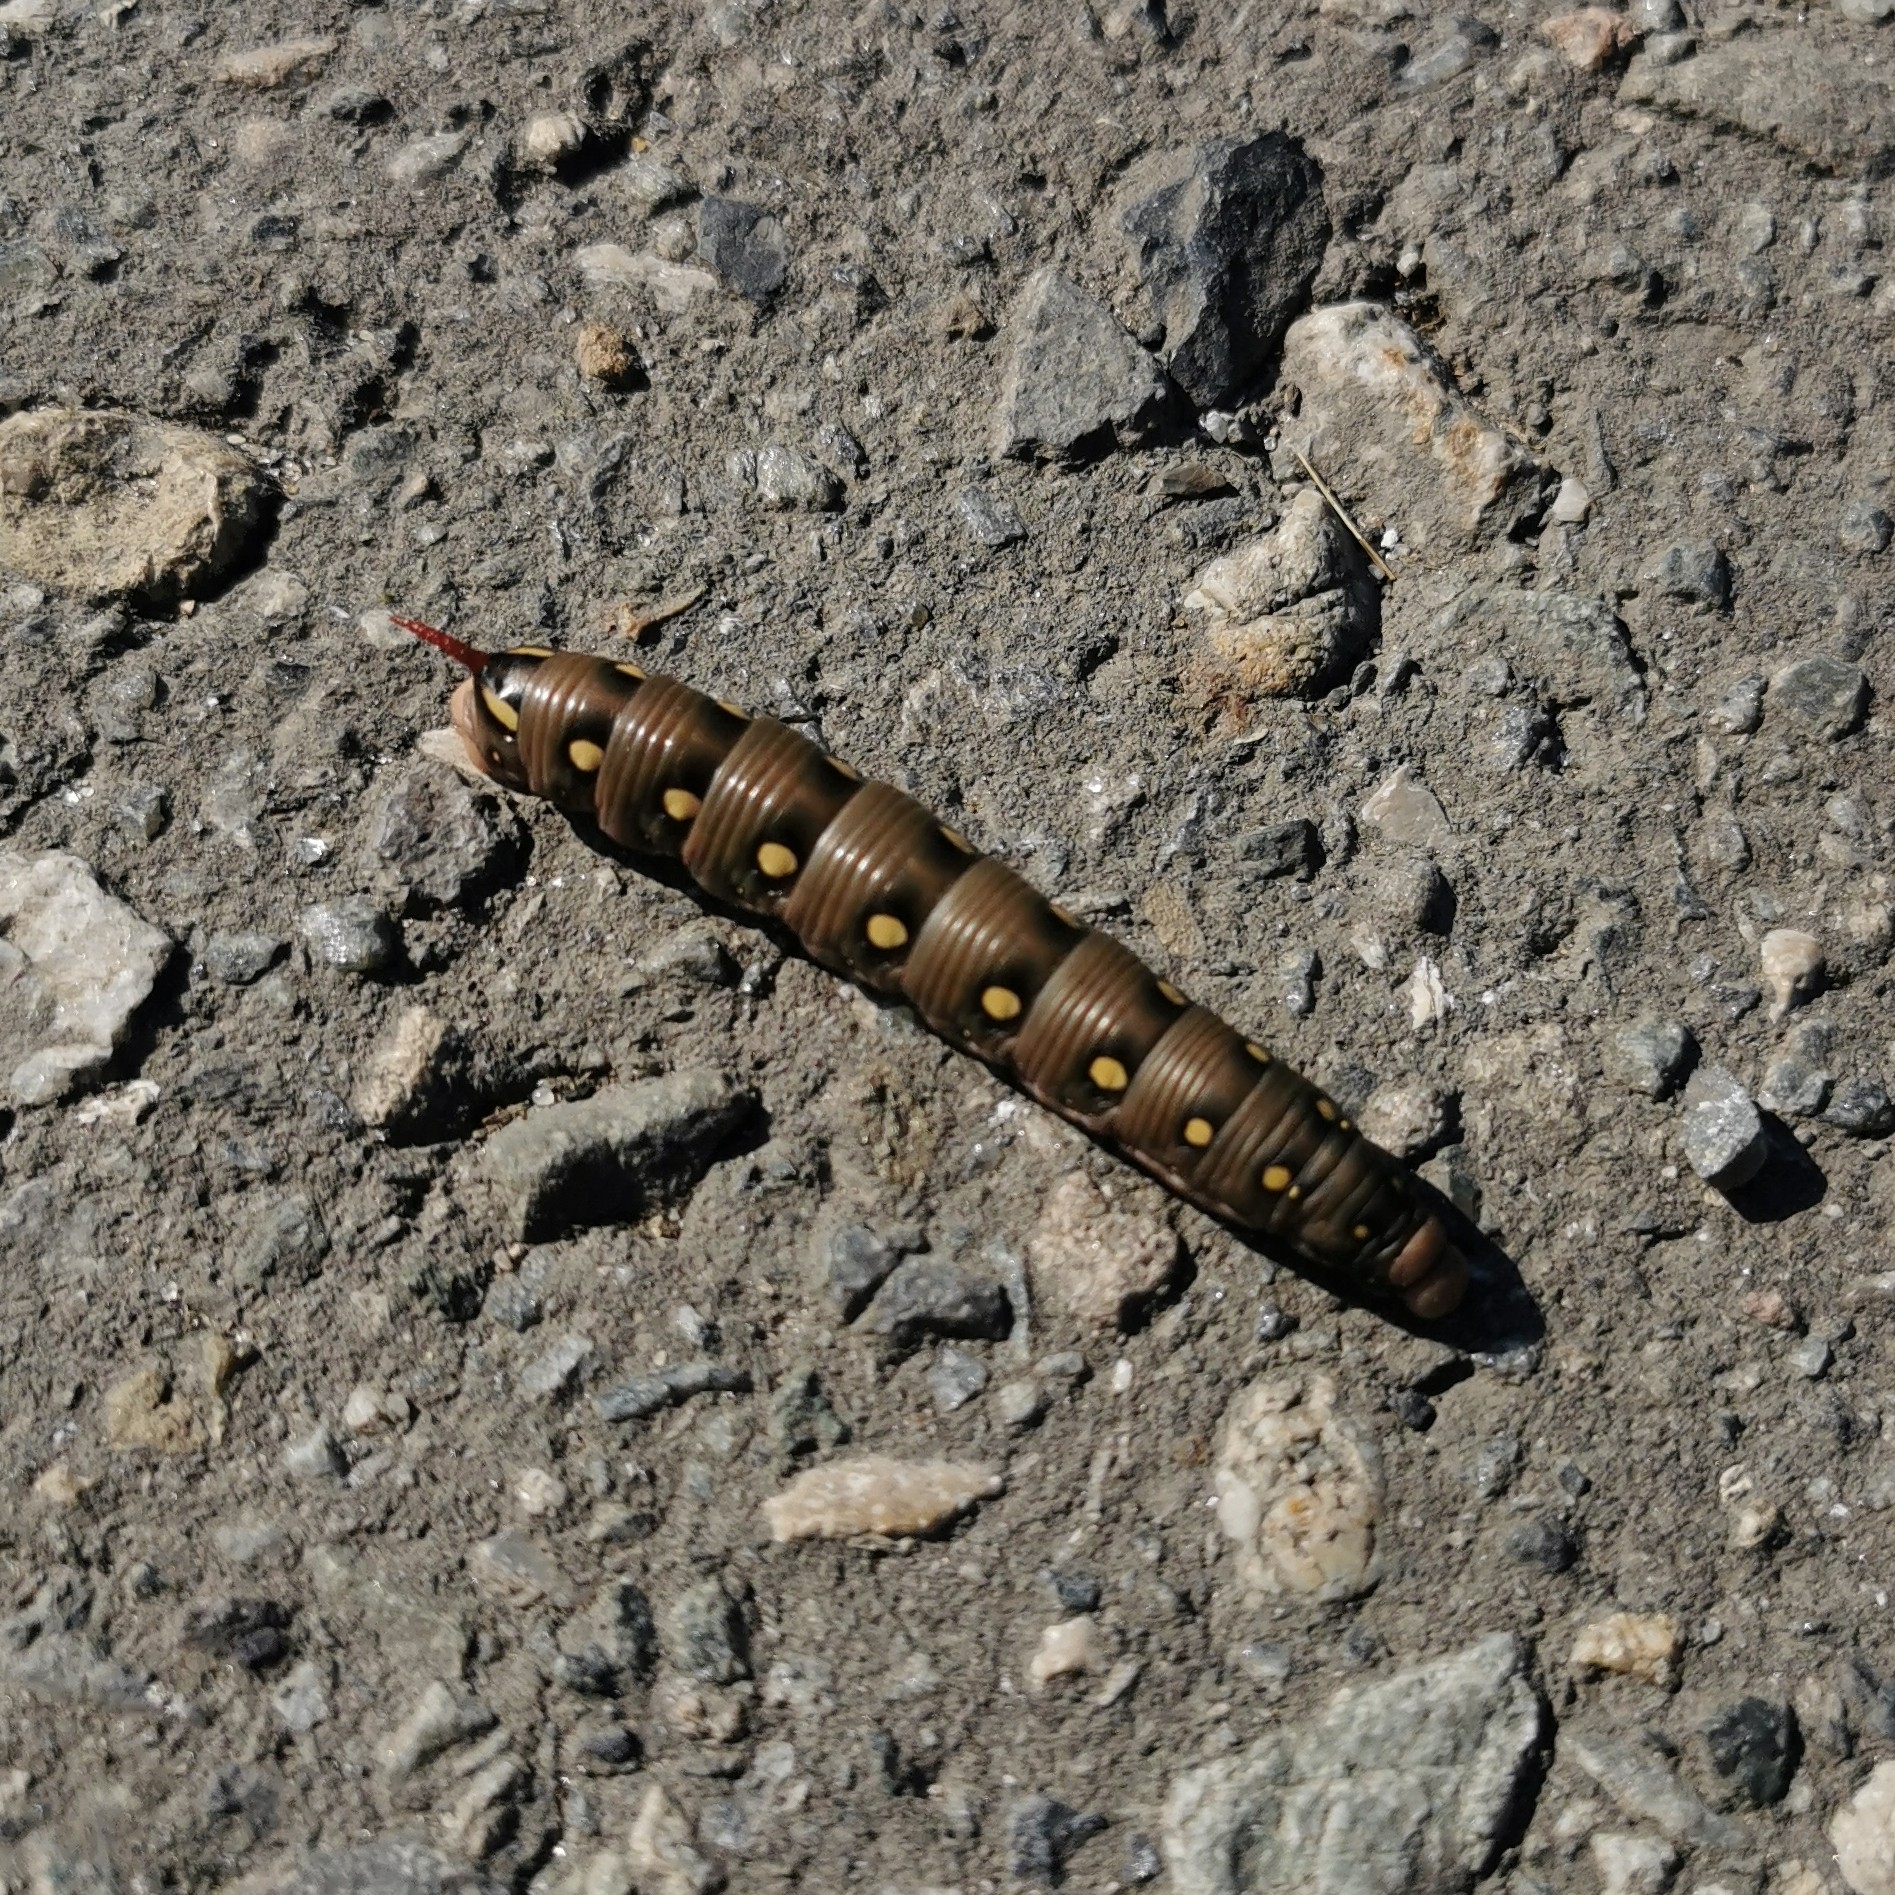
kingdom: Animalia
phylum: Arthropoda
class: Insecta
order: Lepidoptera
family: Sphingidae
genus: Hyles
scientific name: Hyles gallii
